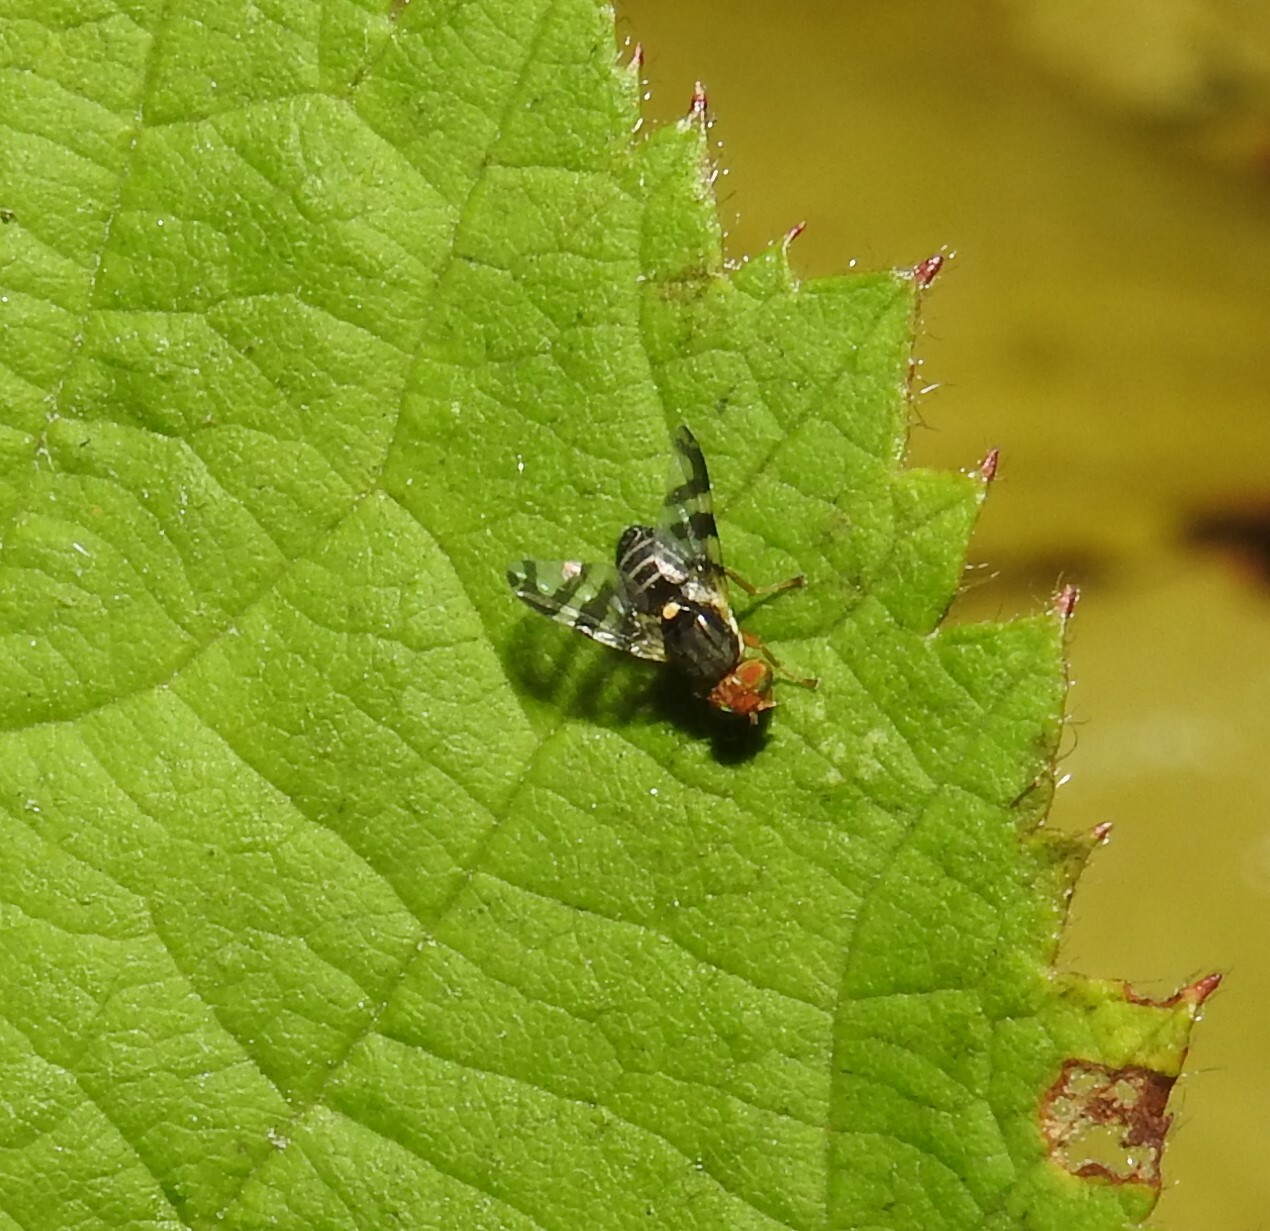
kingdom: Animalia
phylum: Arthropoda
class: Insecta
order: Diptera
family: Tephritidae
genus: Rhagoletis
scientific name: Rhagoletis cingulata
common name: North american cherry fruit fly
